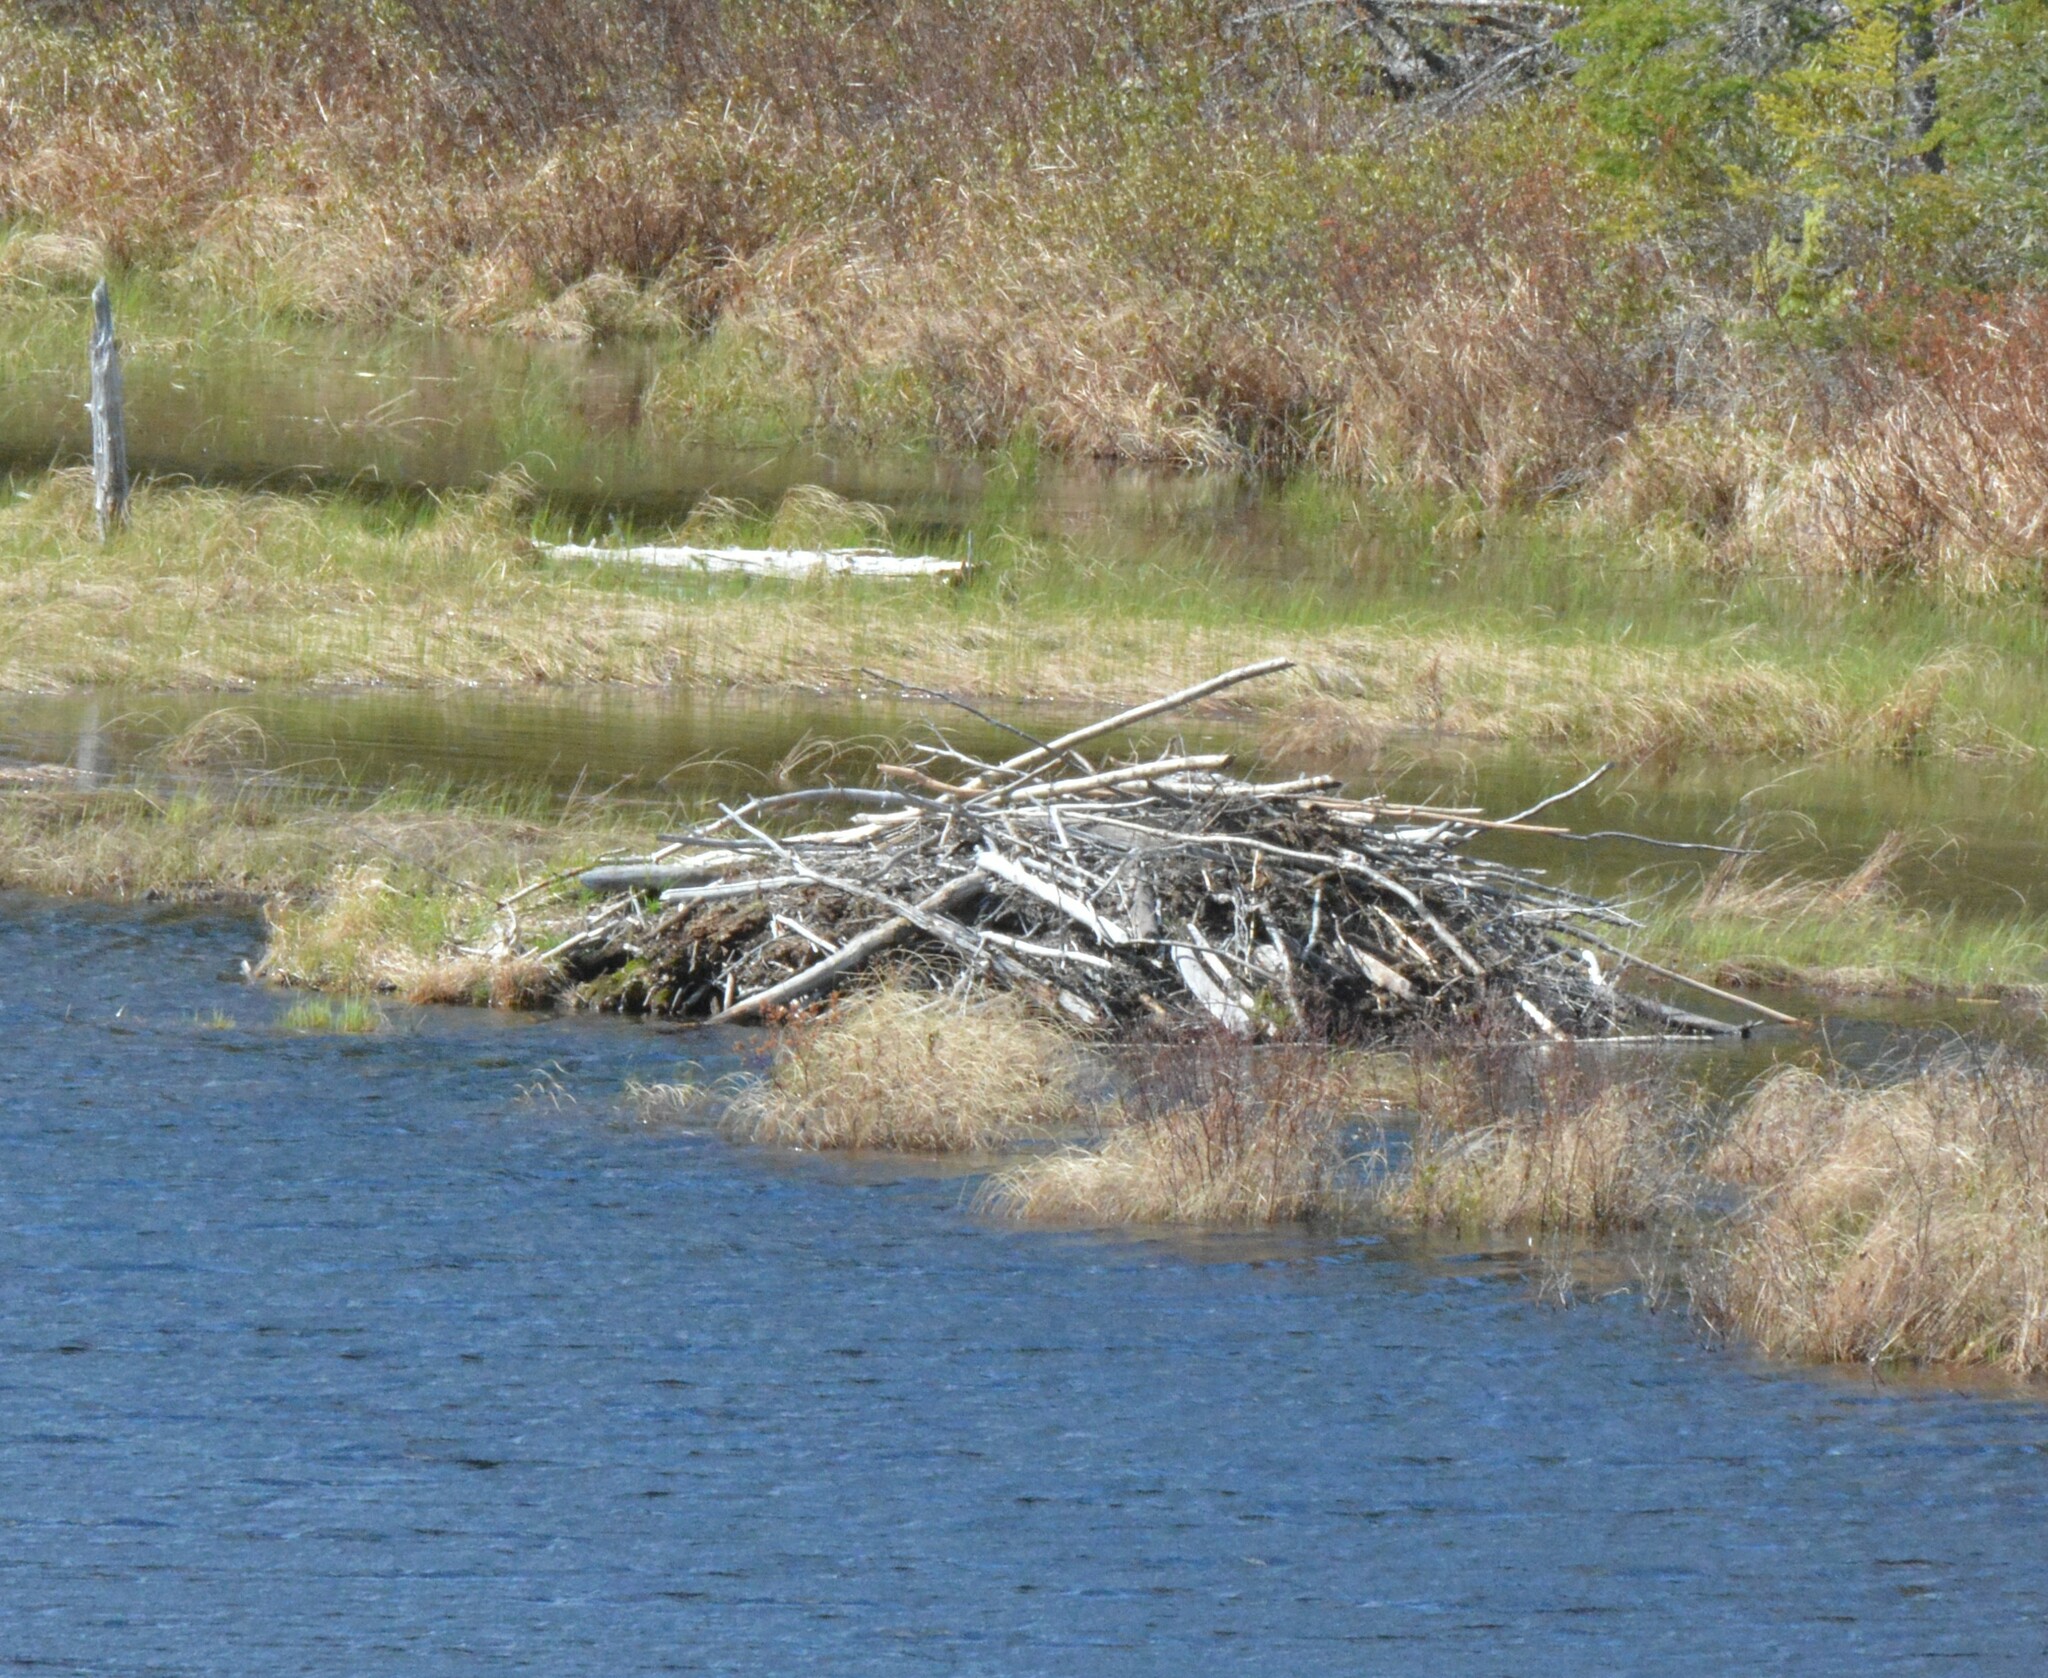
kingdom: Animalia
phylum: Chordata
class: Mammalia
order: Rodentia
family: Castoridae
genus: Castor
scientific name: Castor canadensis
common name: American beaver
